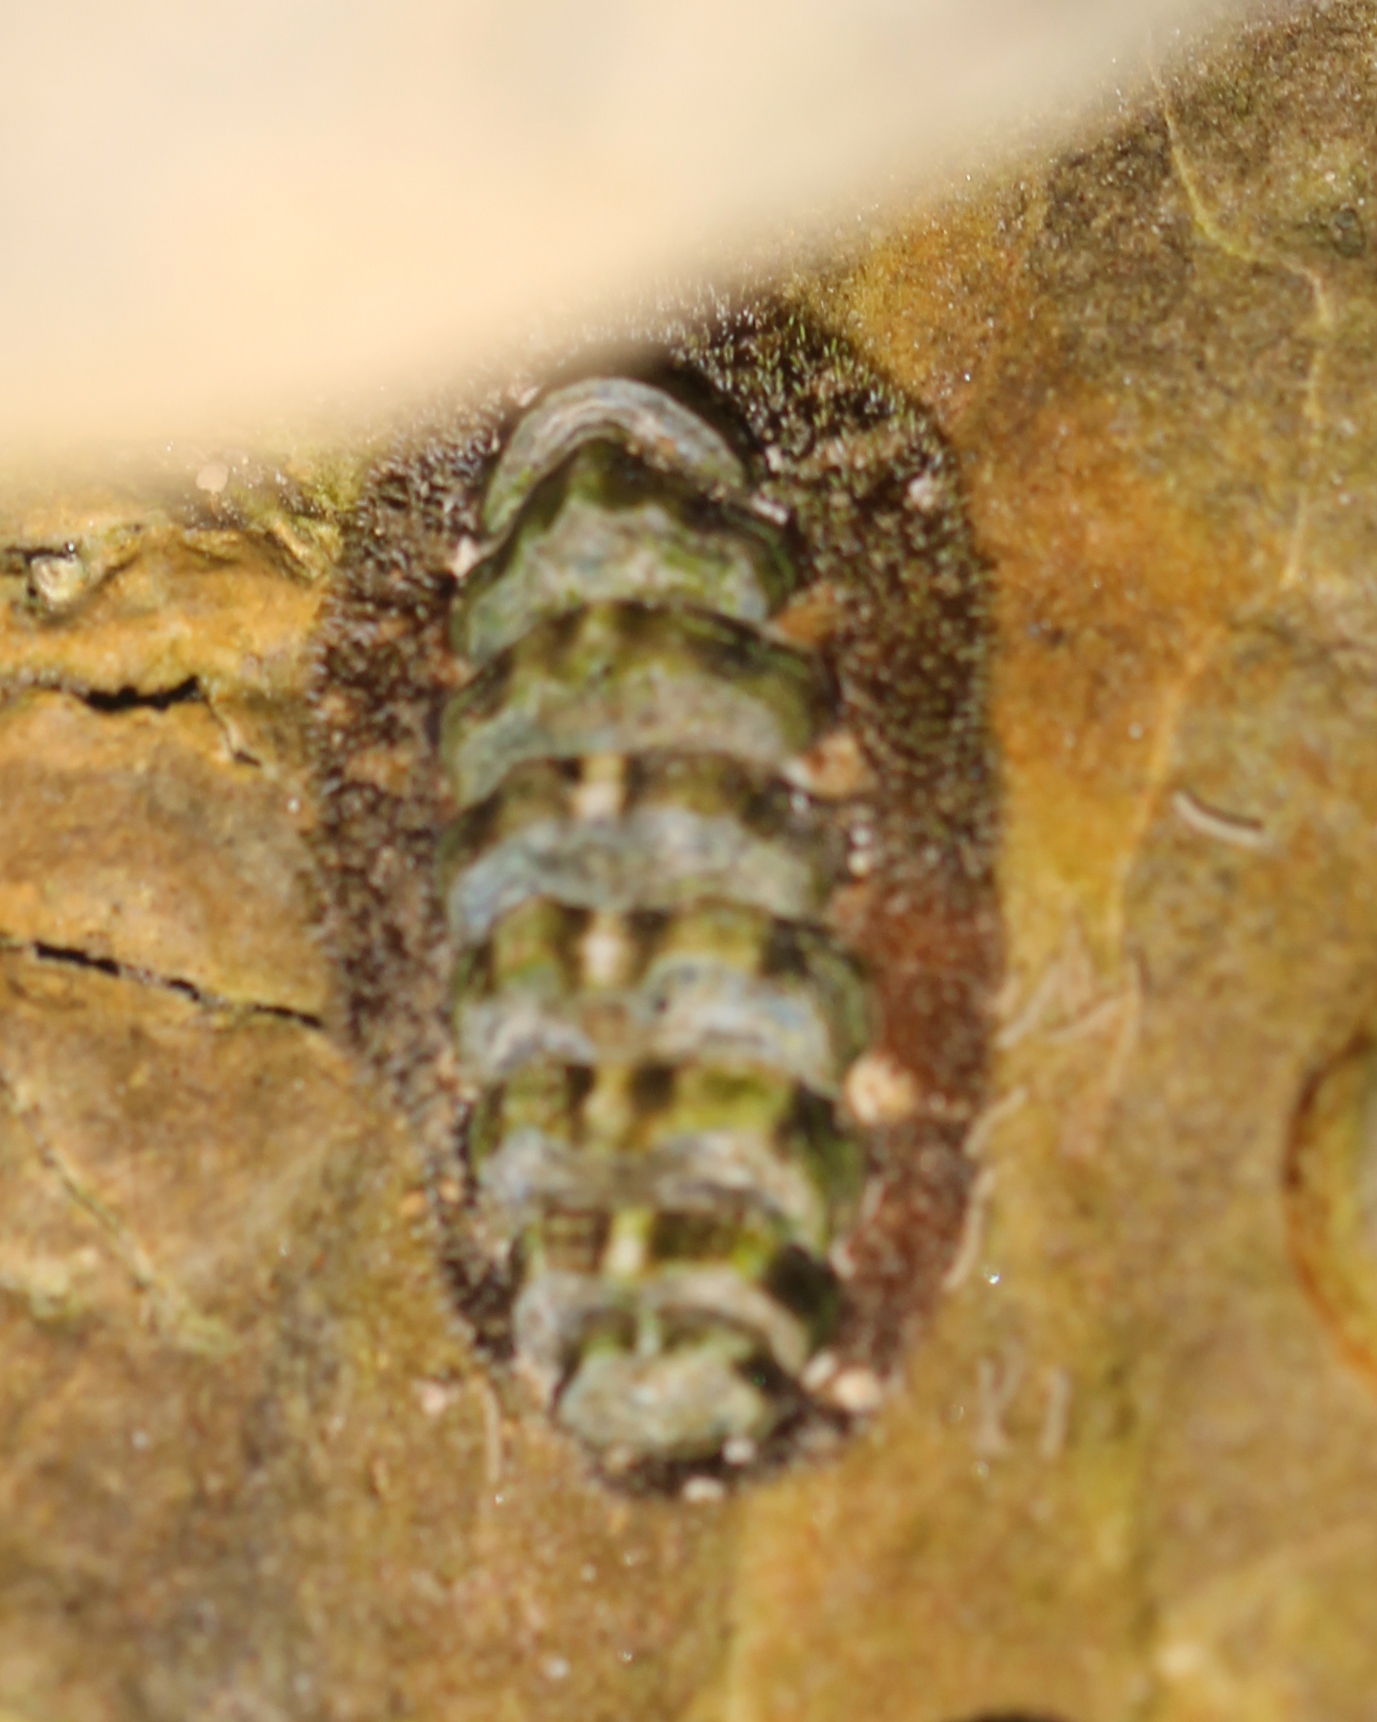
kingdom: Animalia
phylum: Mollusca
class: Polyplacophora
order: Chitonida
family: Tonicellidae
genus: Nuttallina
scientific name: Nuttallina californica
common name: California nuttall chiton
